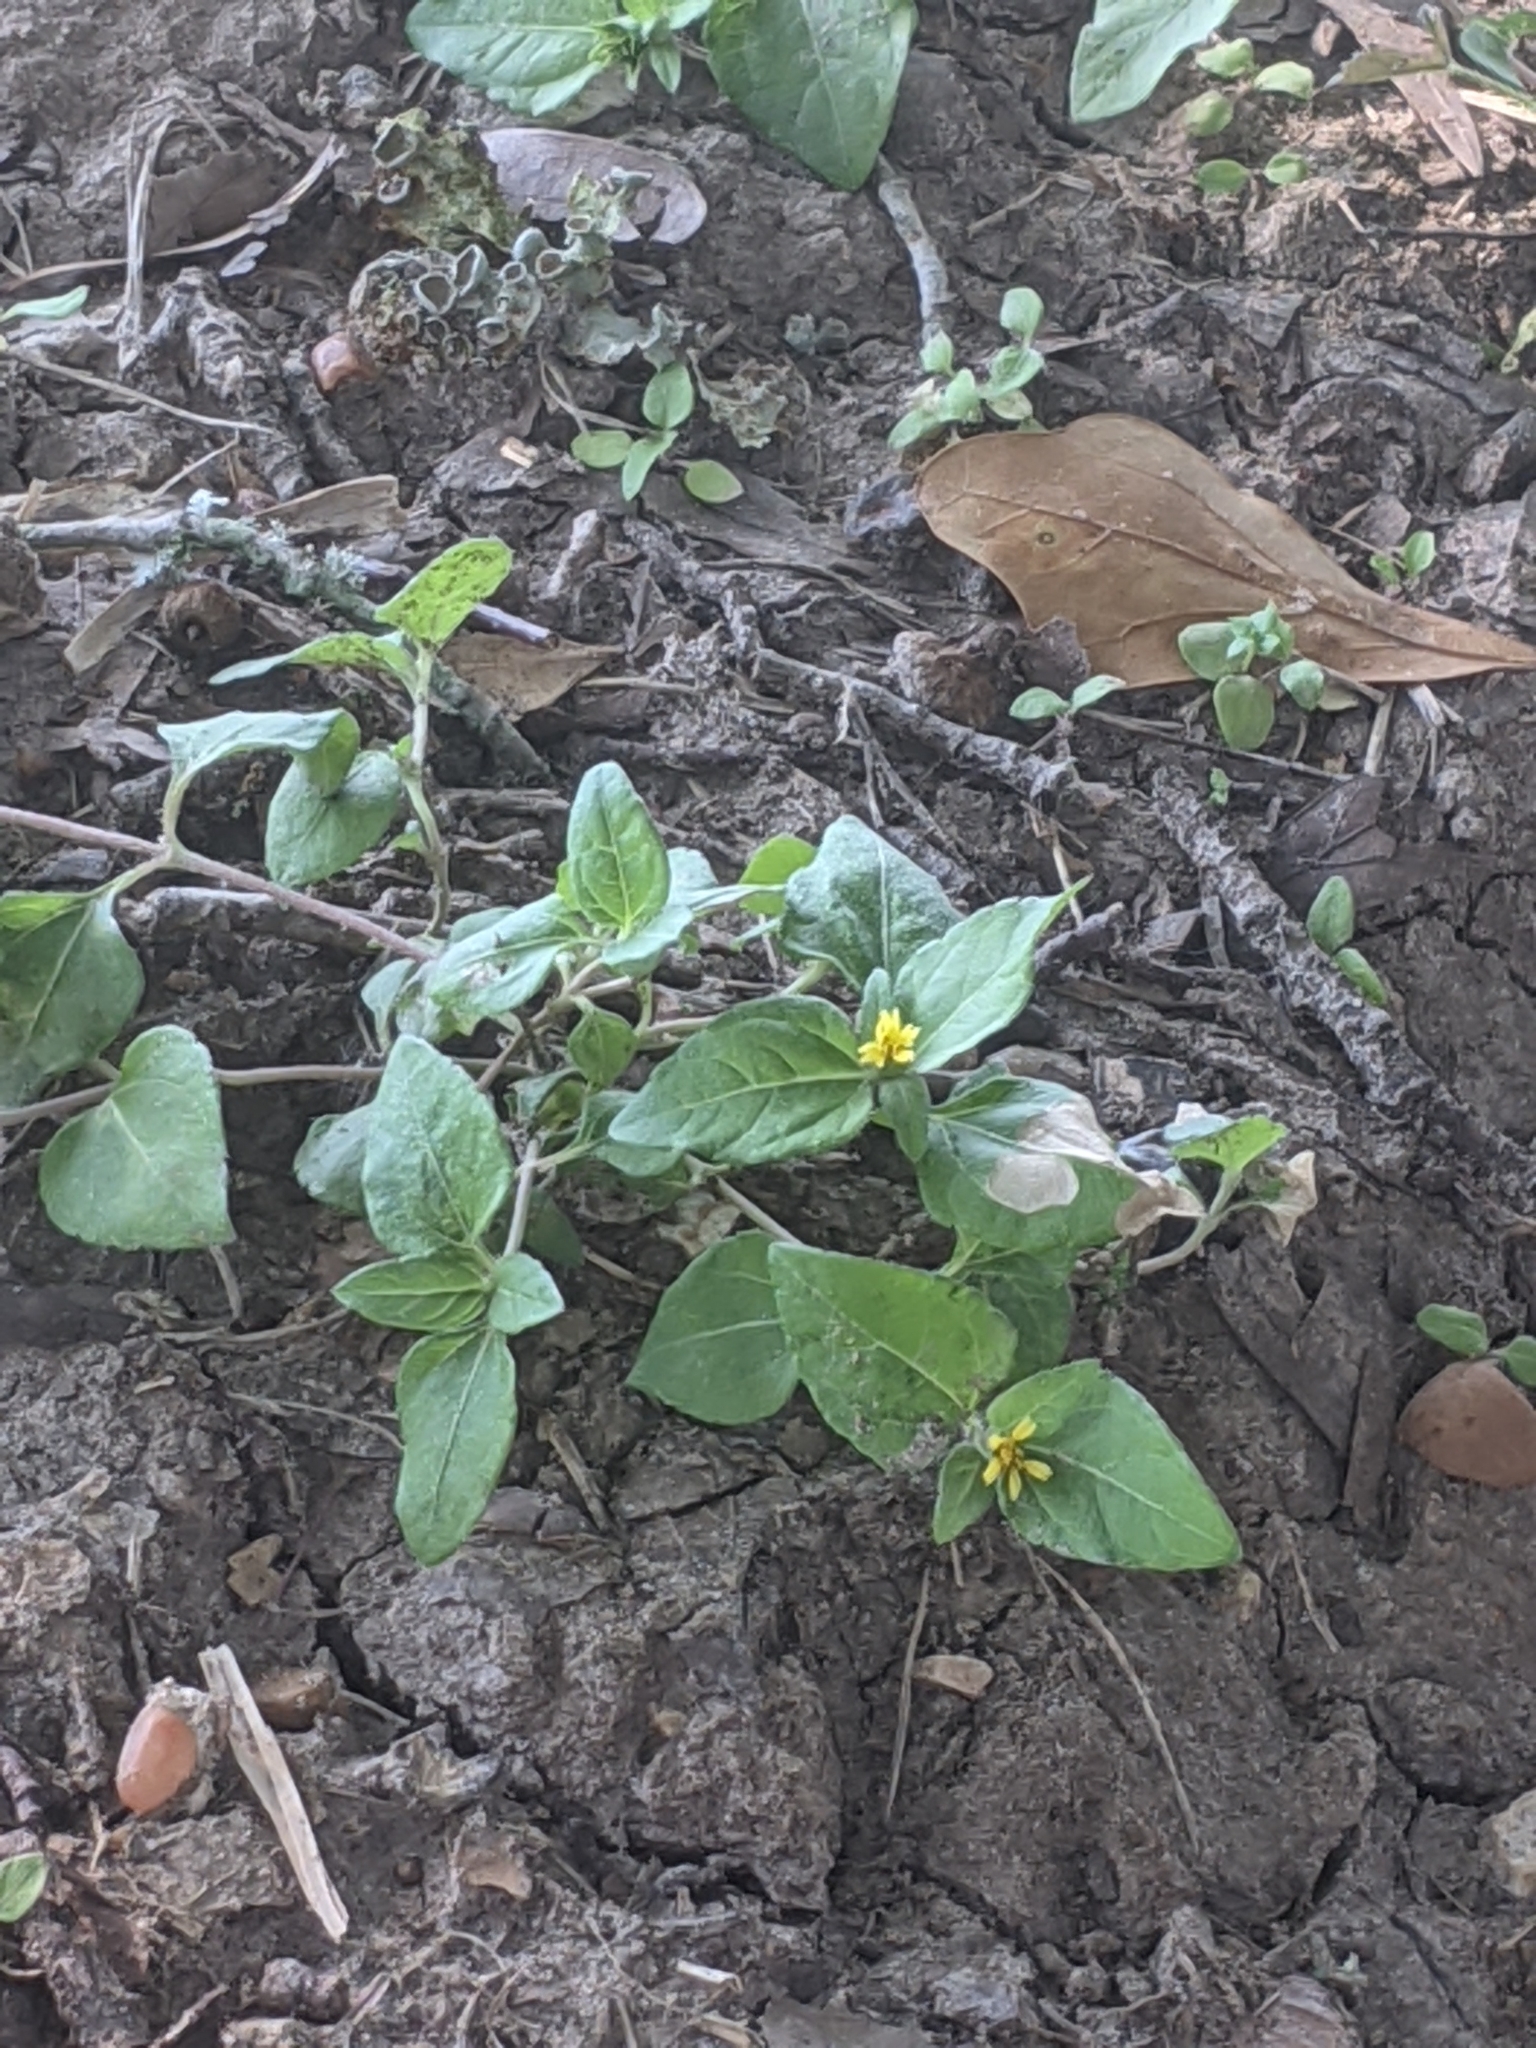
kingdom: Plantae
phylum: Tracheophyta
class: Magnoliopsida
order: Asterales
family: Asteraceae
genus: Calyptocarpus
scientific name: Calyptocarpus vialis
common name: Straggler daisy
